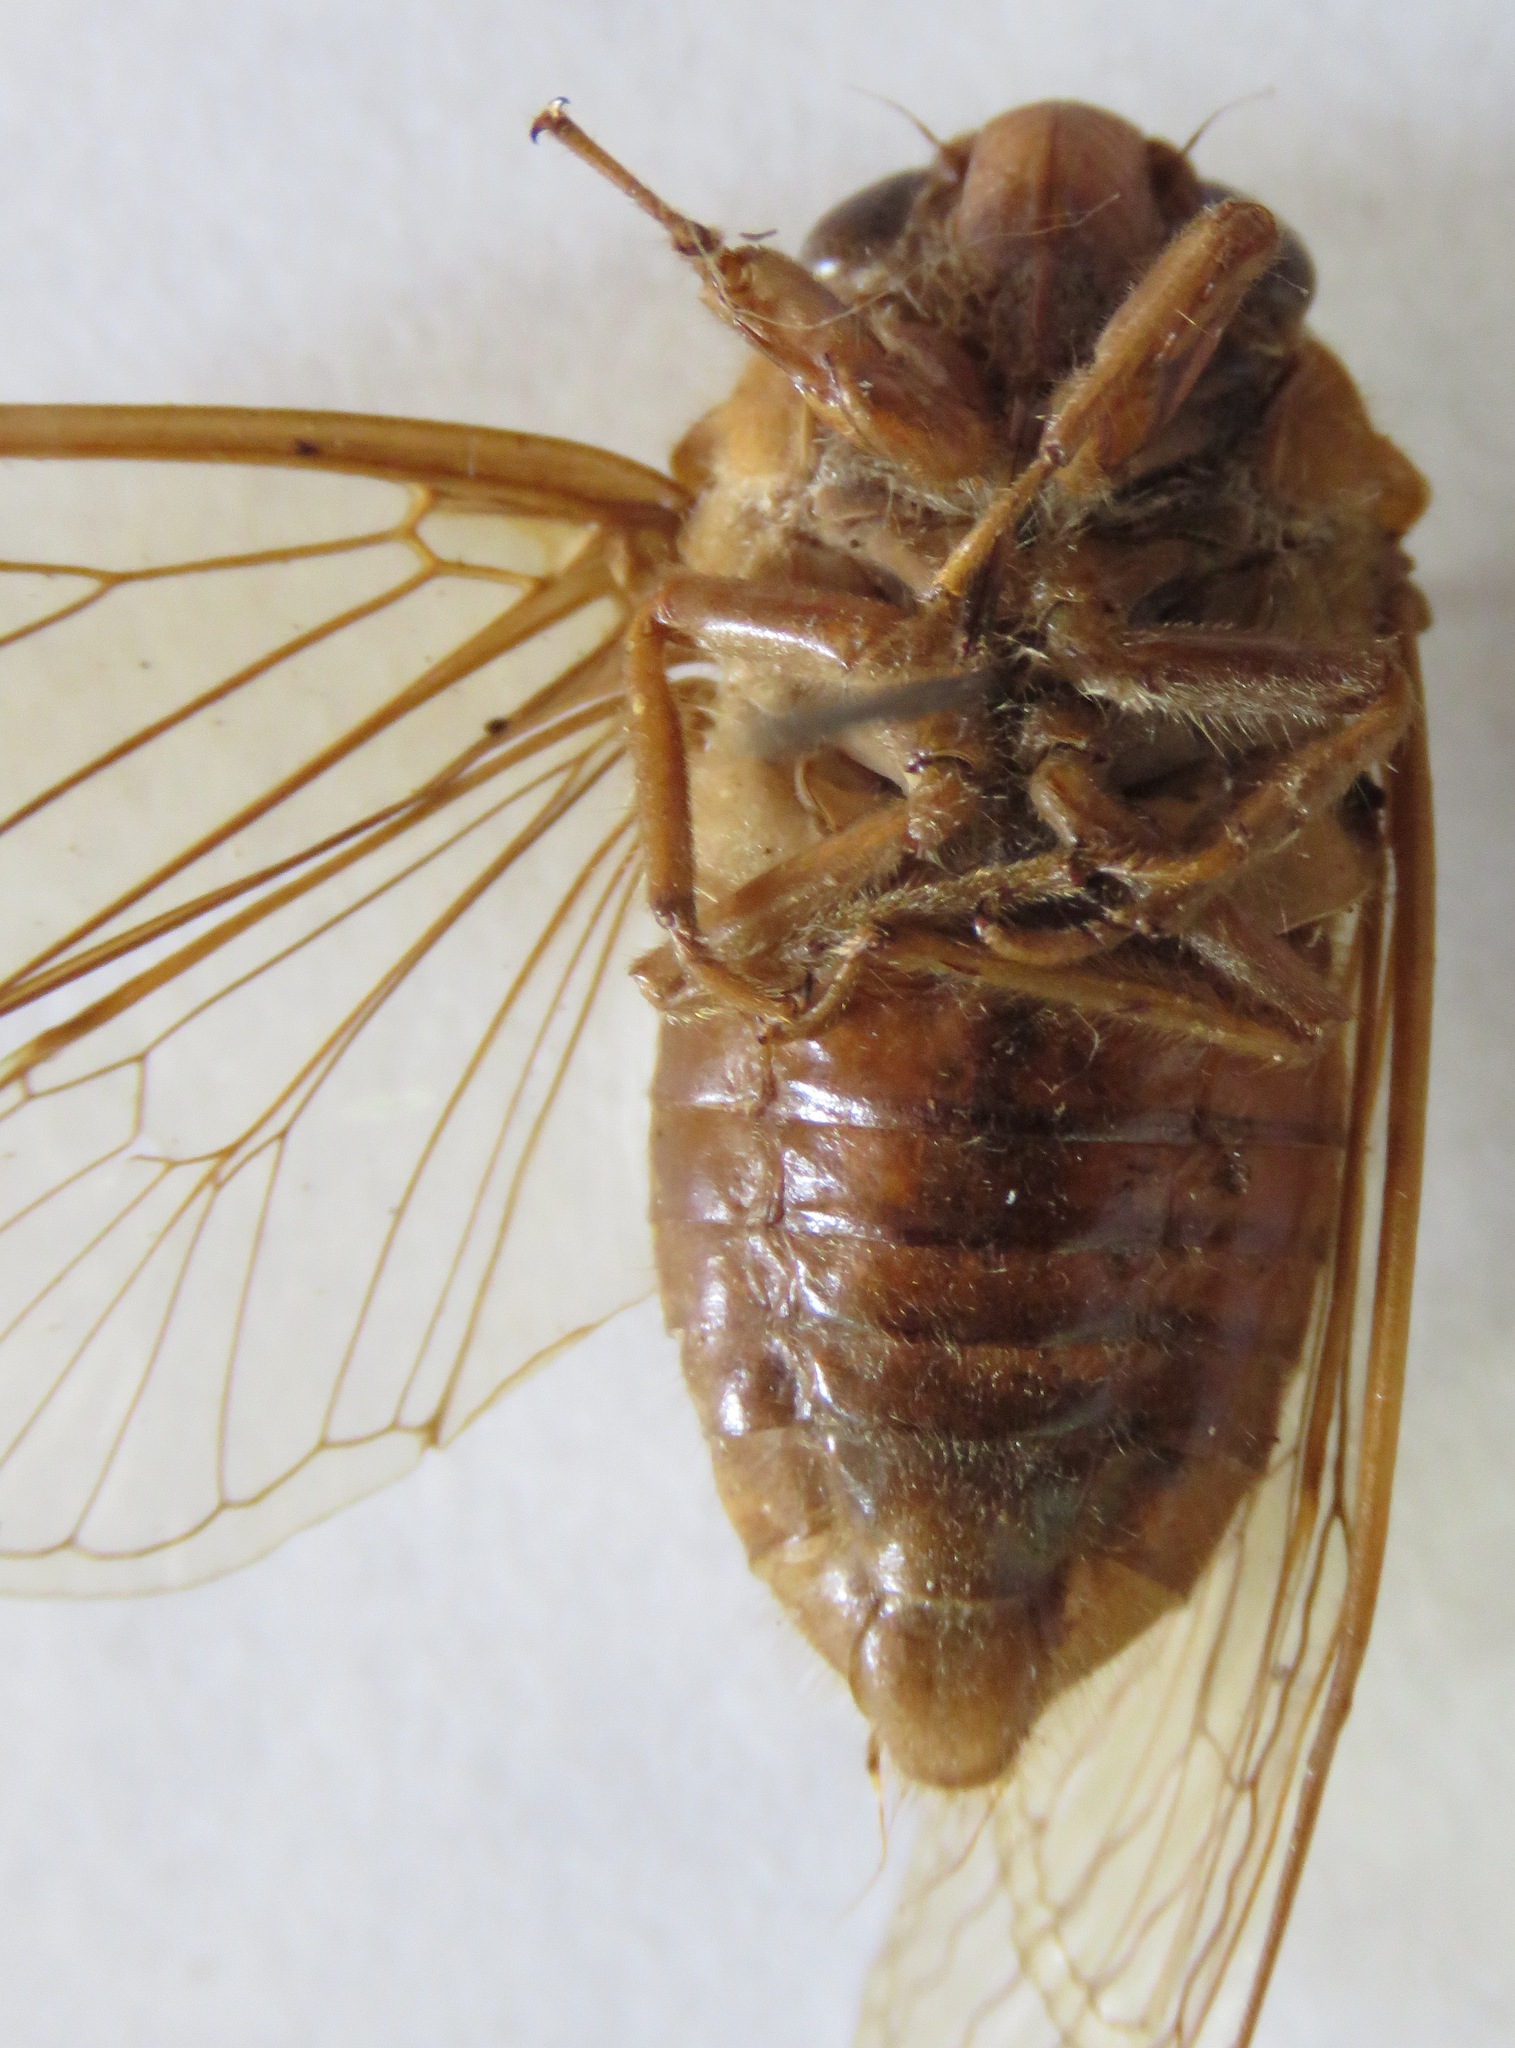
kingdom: Animalia
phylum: Arthropoda
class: Insecta
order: Hemiptera
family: Cicadidae
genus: Carineta
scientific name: Carineta viridicata
